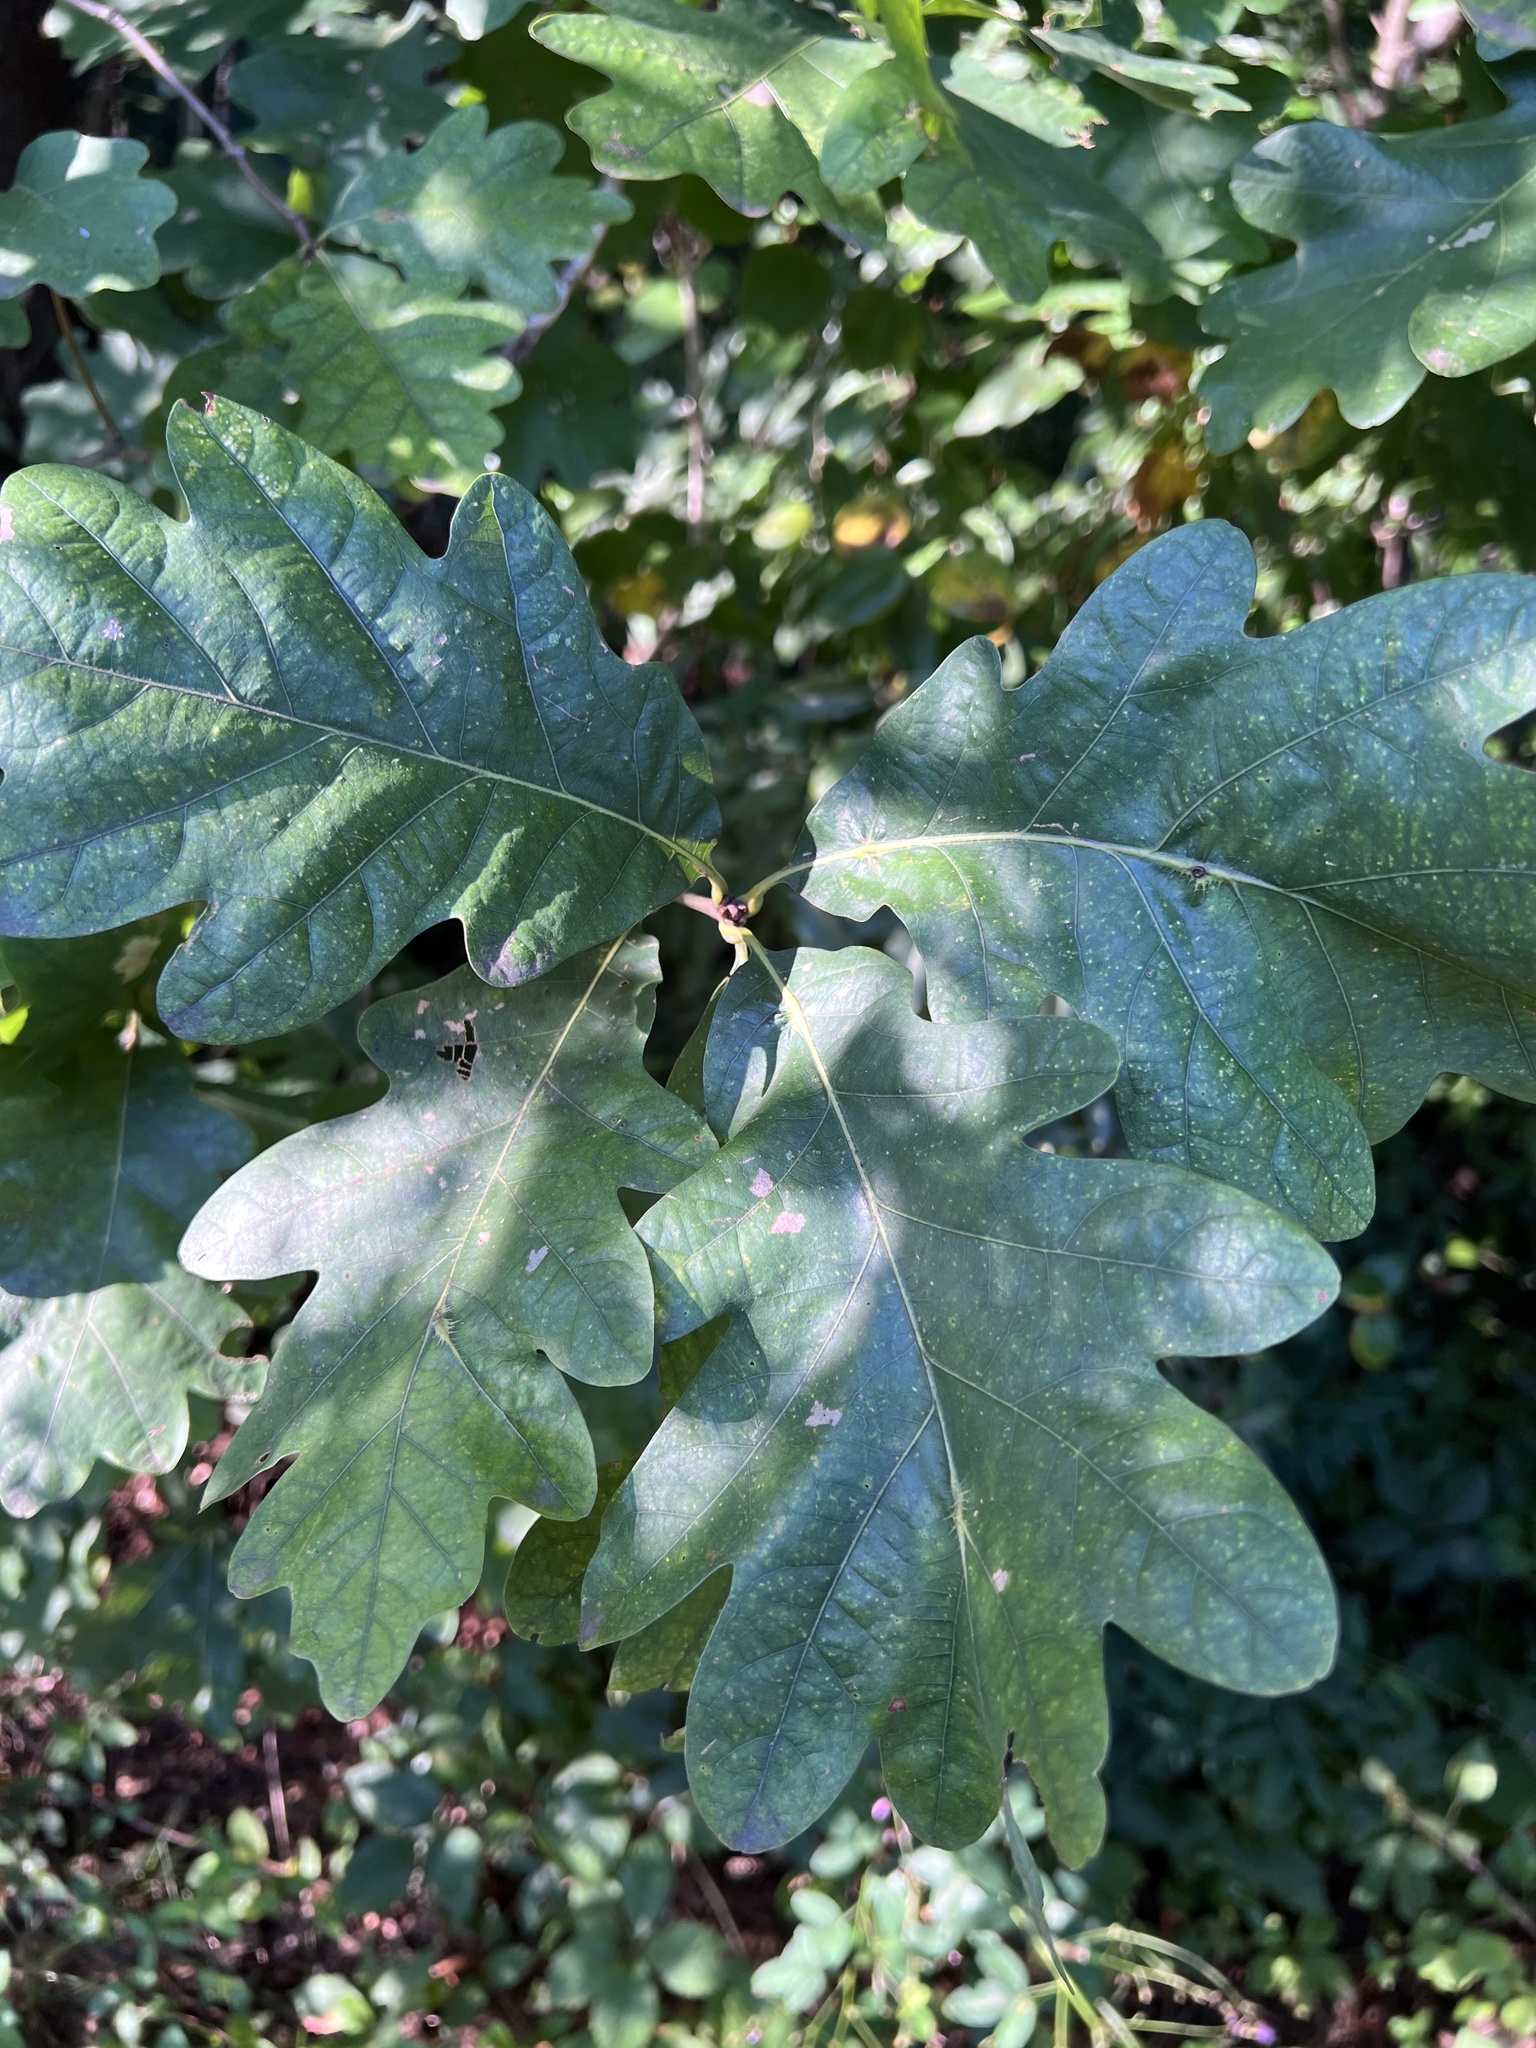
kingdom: Animalia
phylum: Arthropoda
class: Insecta
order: Hemiptera
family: Kermesidae
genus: Nanokermes
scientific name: Nanokermes folium
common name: Leaf kermes
